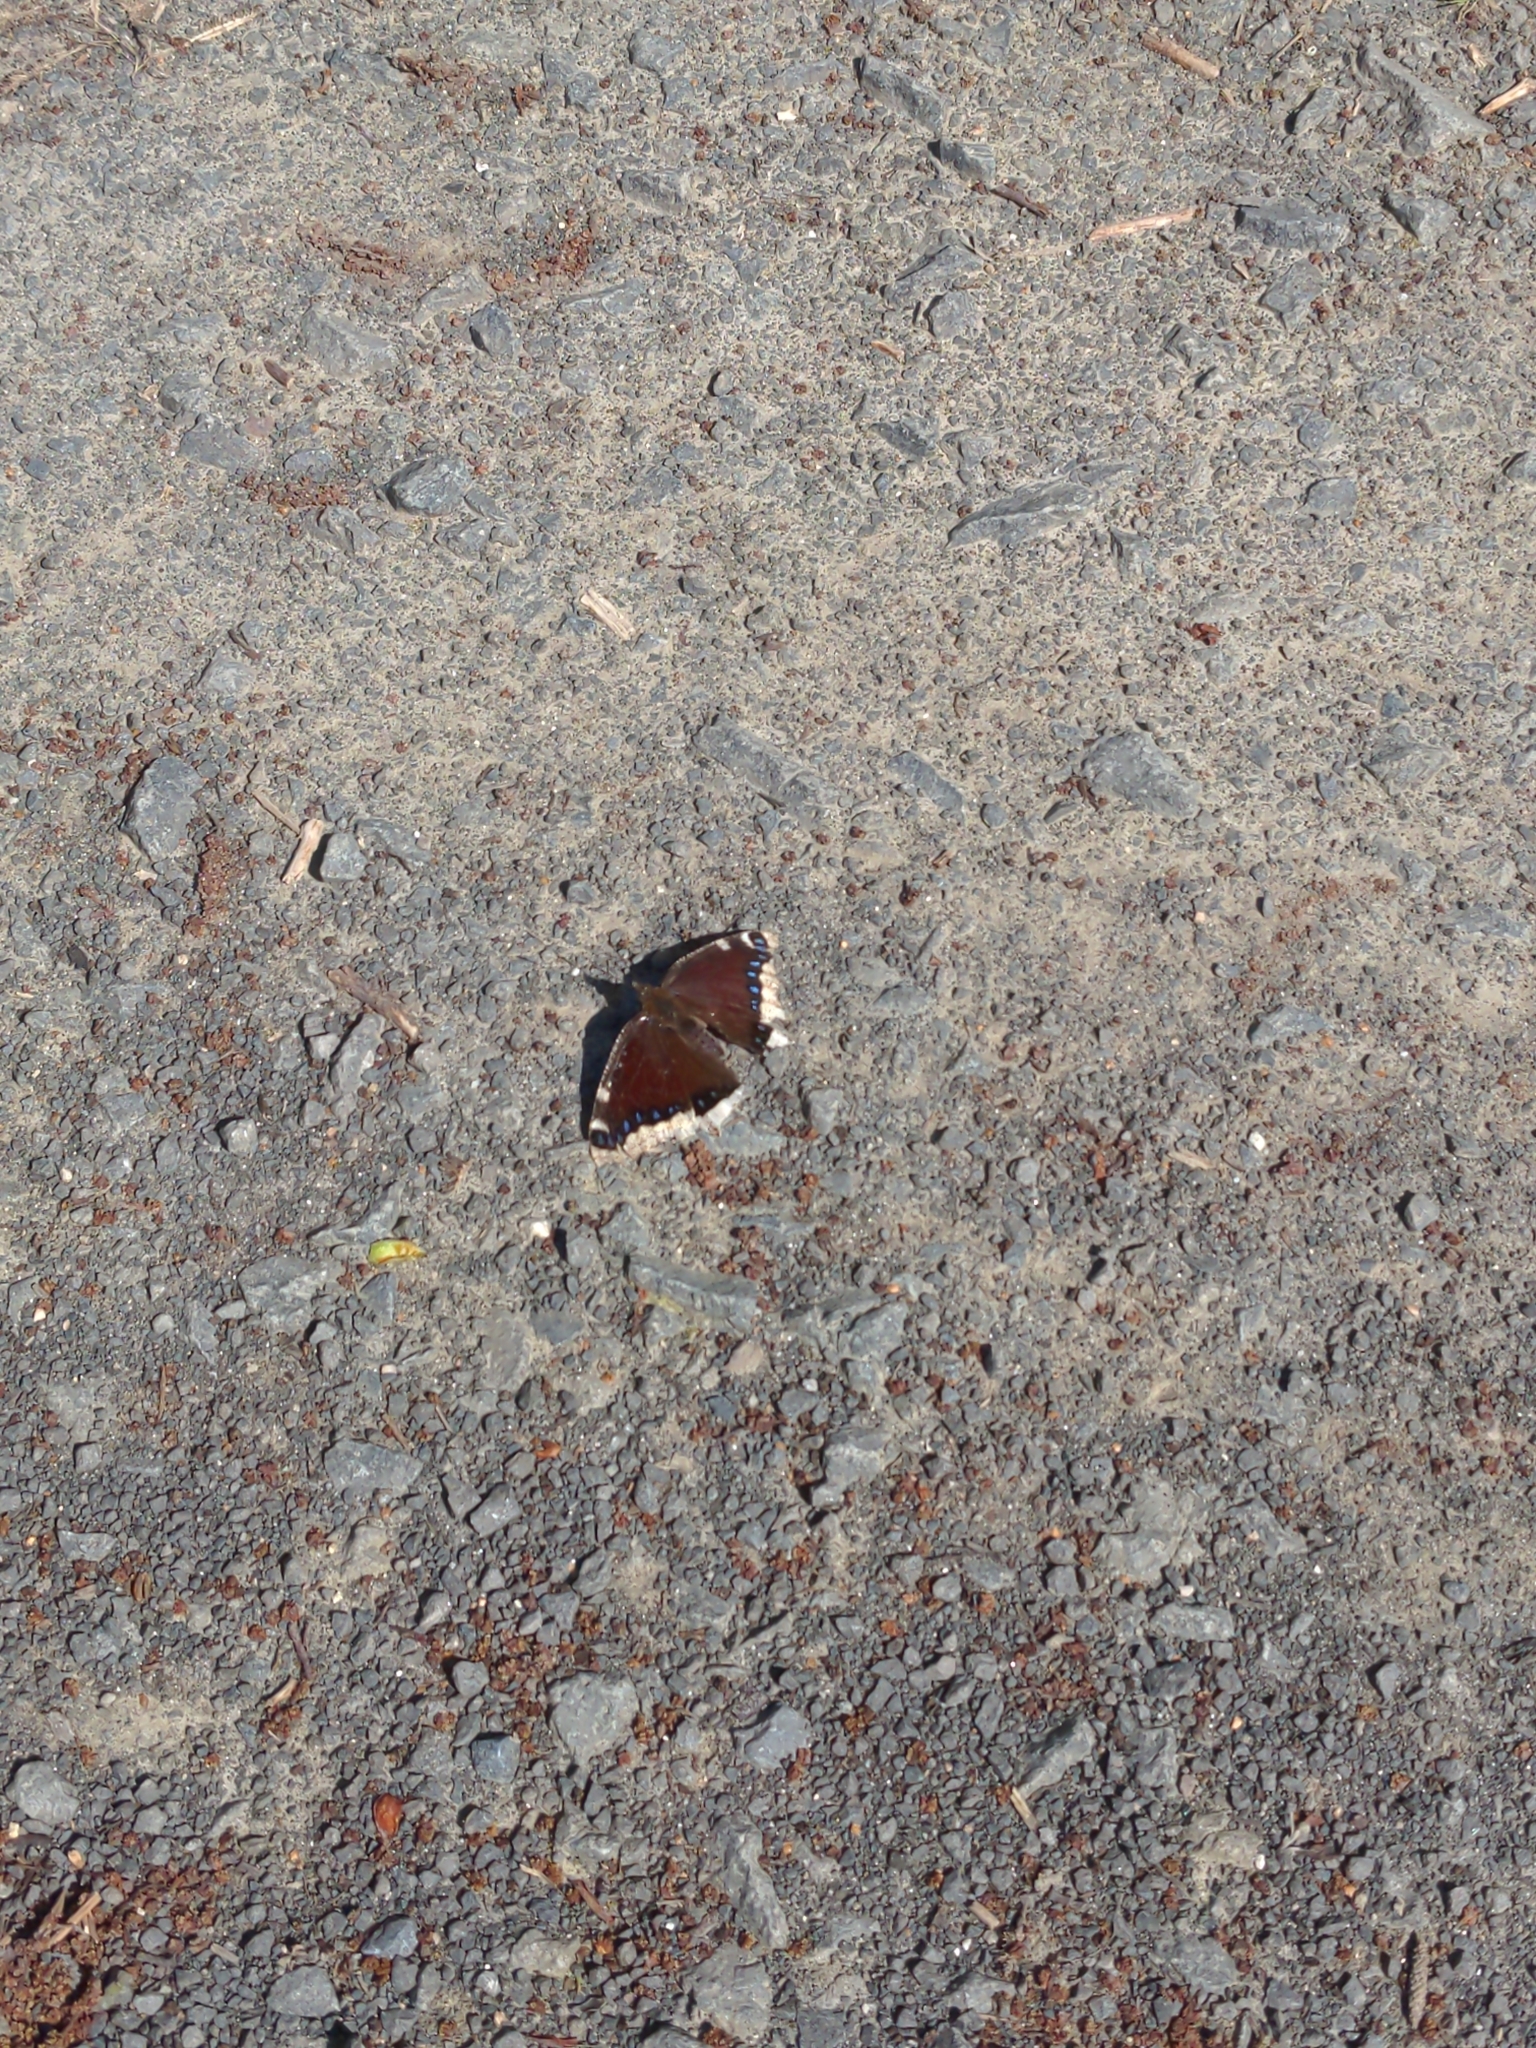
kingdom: Animalia
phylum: Arthropoda
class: Insecta
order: Lepidoptera
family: Nymphalidae
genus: Nymphalis
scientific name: Nymphalis antiopa
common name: Camberwell beauty
